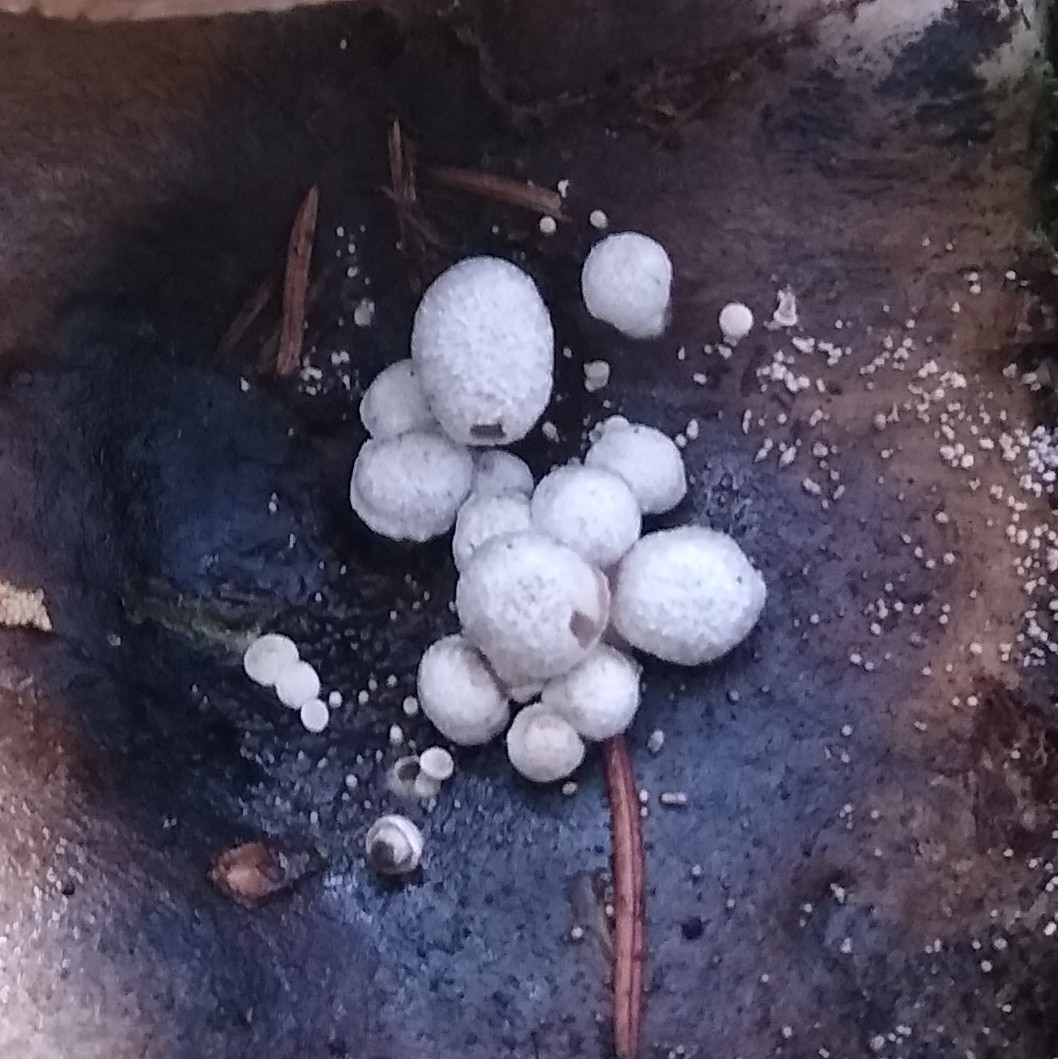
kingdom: Fungi
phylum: Basidiomycota
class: Agaricomycetes
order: Agaricales
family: Lyophyllaceae
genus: Asterophora
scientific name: Asterophora parasitica
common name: Silky piggyback
